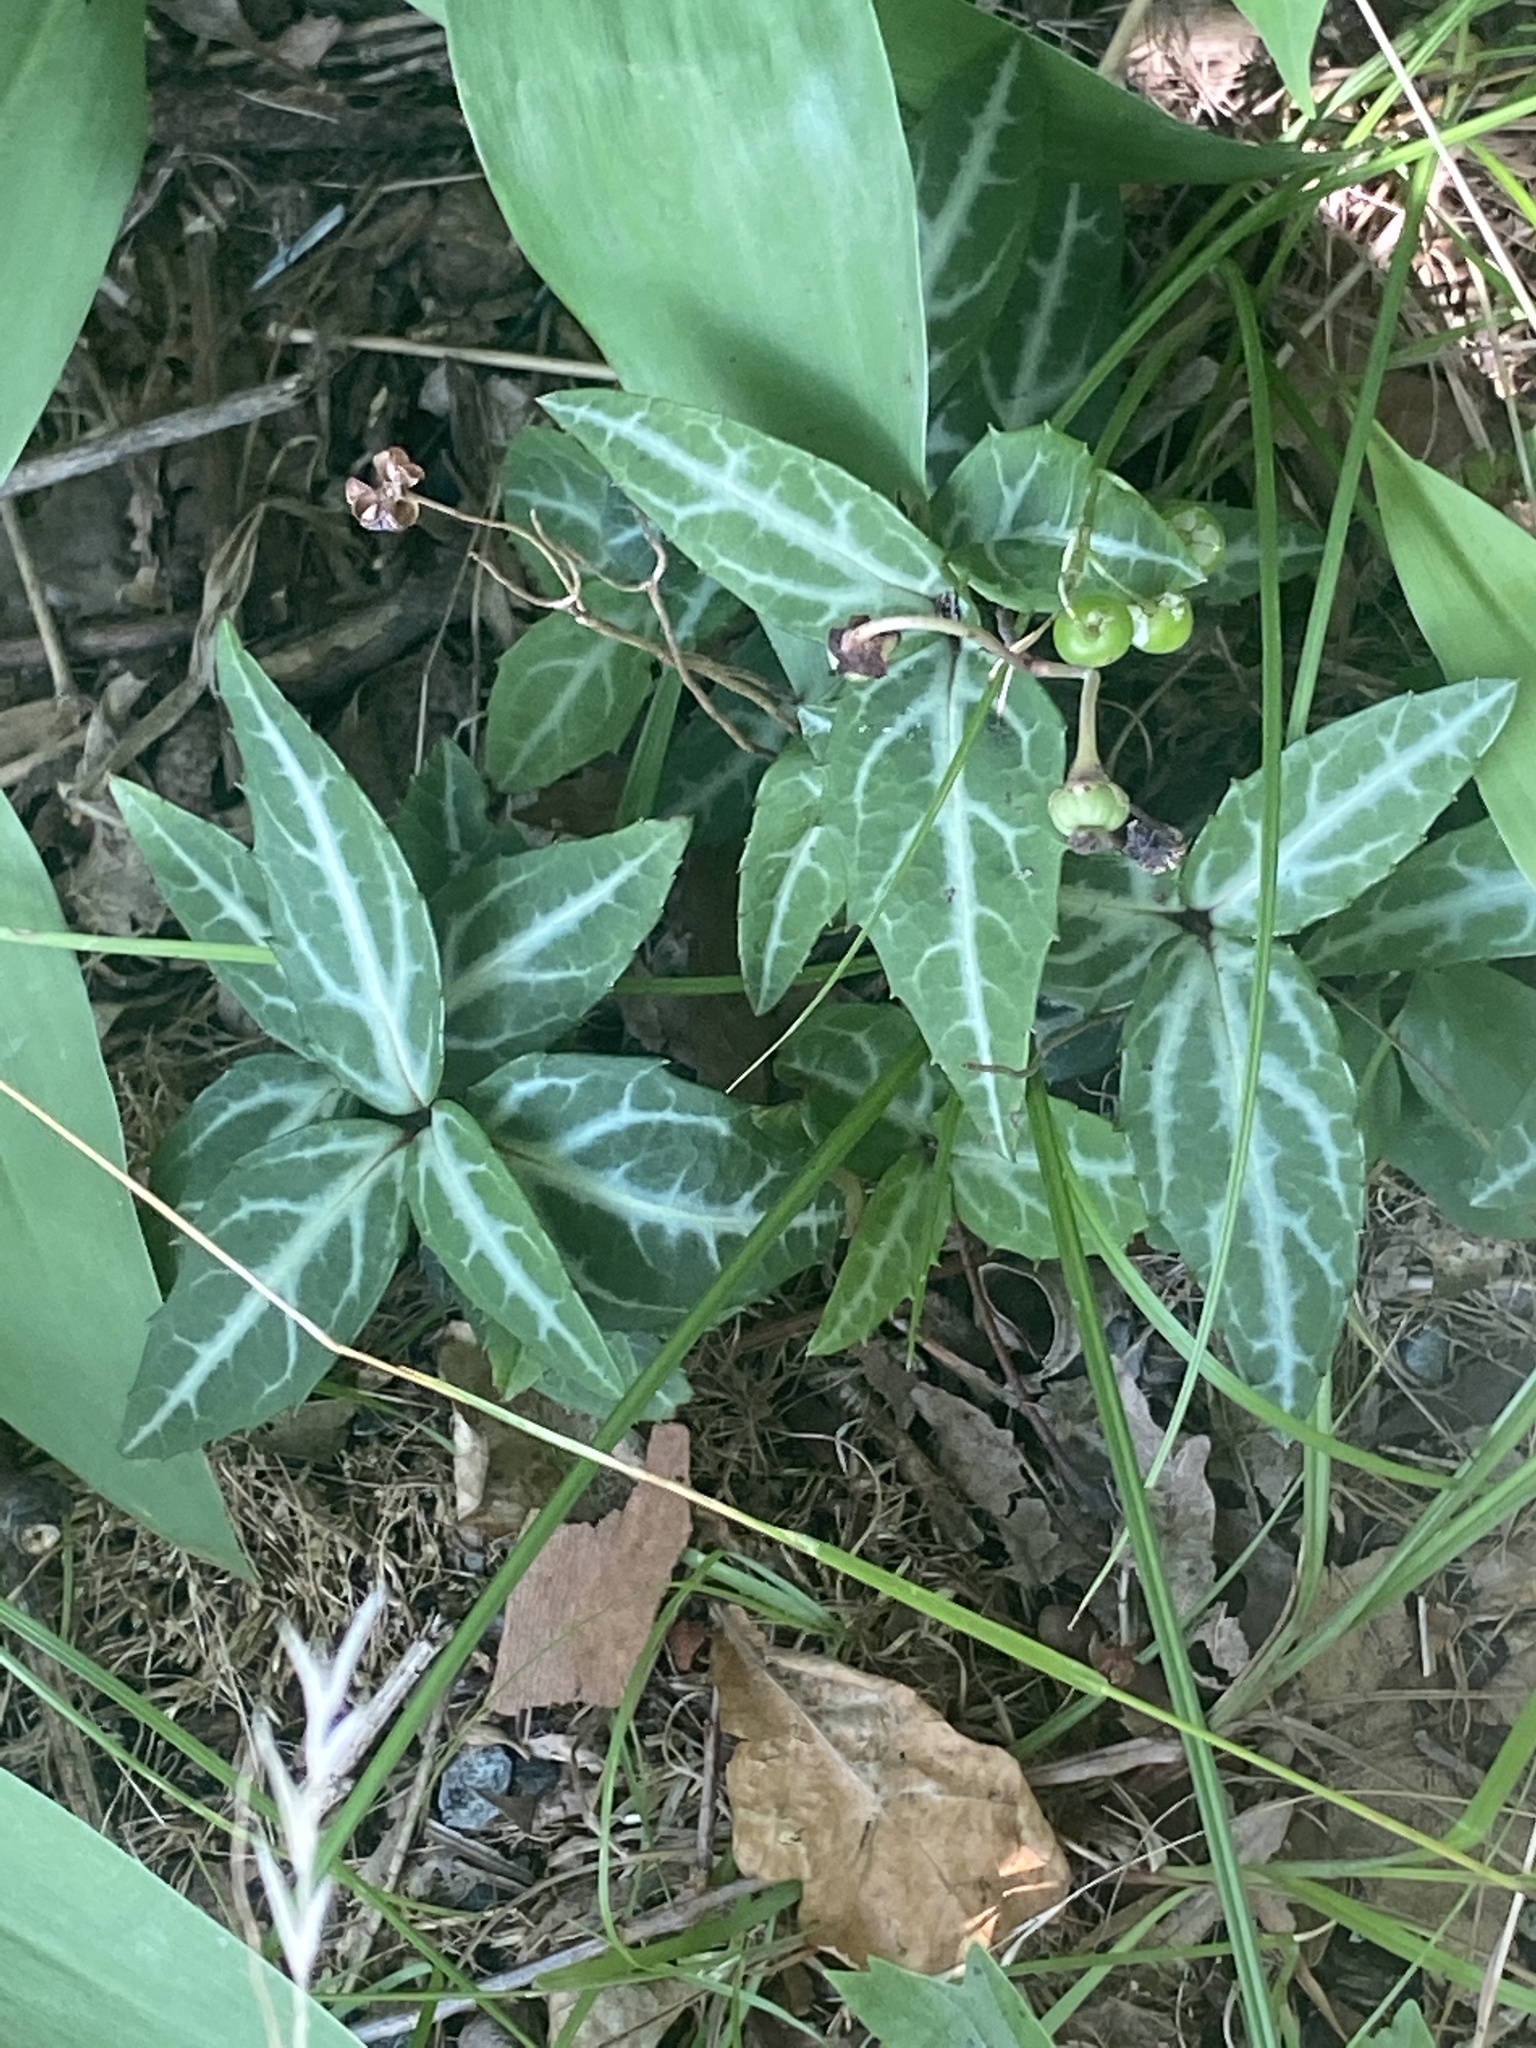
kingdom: Plantae
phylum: Tracheophyta
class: Magnoliopsida
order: Ericales
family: Ericaceae
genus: Chimaphila
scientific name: Chimaphila maculata
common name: Spotted pipsissewa
